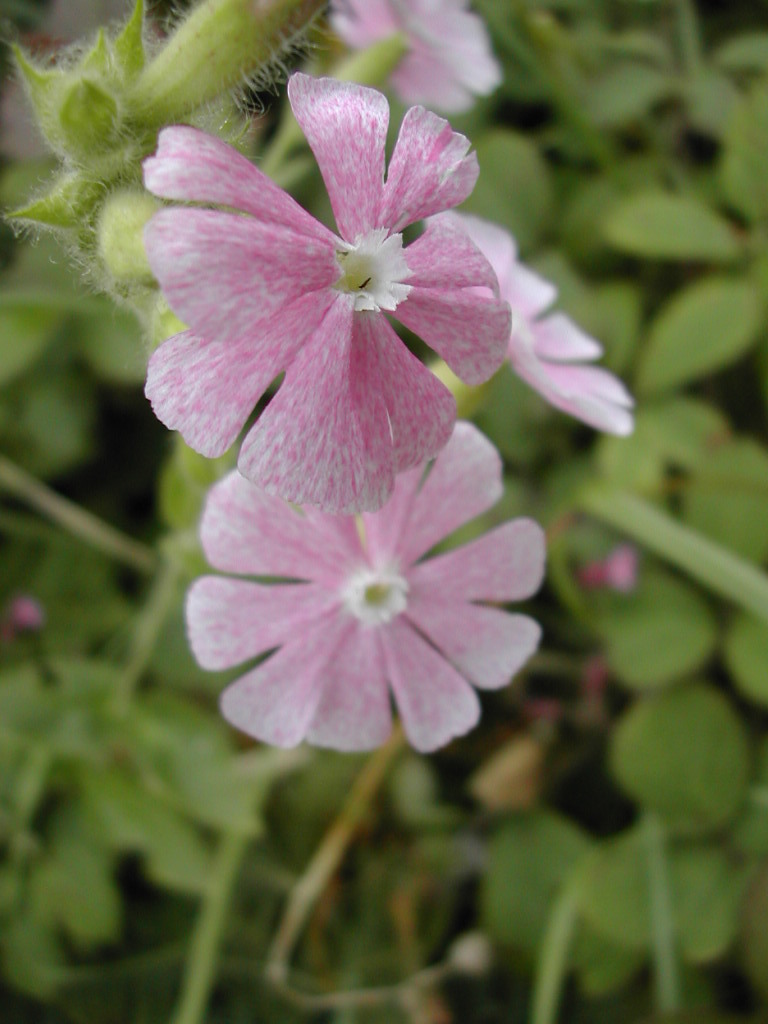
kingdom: Plantae
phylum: Tracheophyta
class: Magnoliopsida
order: Caryophyllales
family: Caryophyllaceae
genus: Silene
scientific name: Silene hampeana
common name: Catchfly
